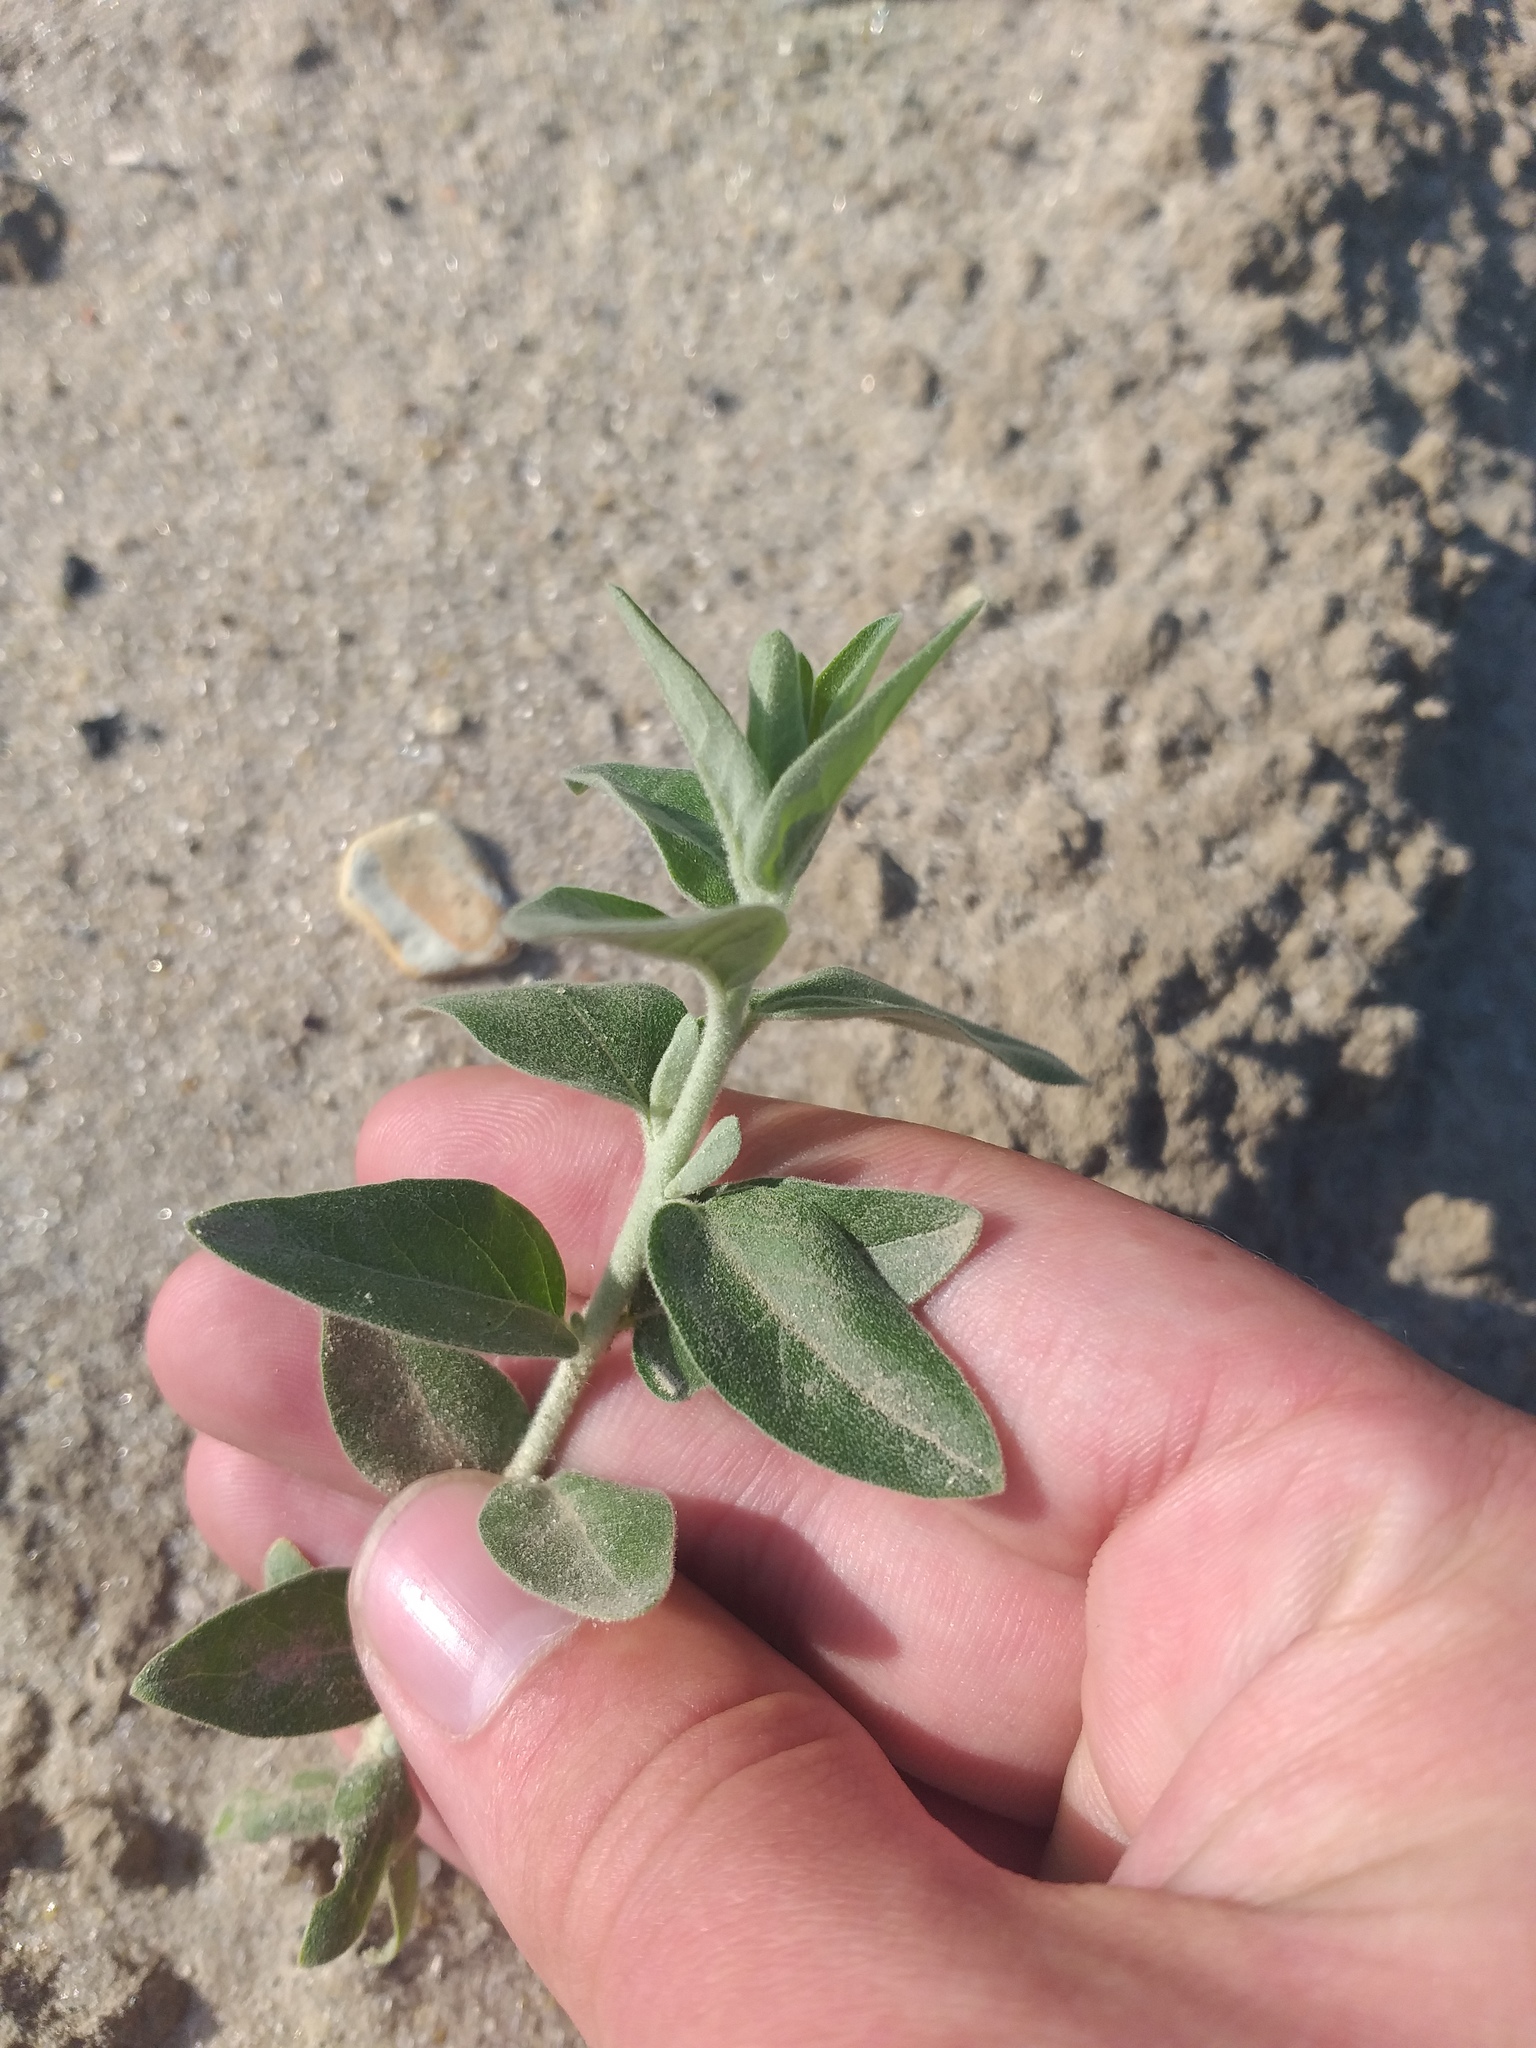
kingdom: Plantae
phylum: Tracheophyta
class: Magnoliopsida
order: Rosales
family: Elaeagnaceae
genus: Elaeagnus
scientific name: Elaeagnus angustifolia
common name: Russian olive
